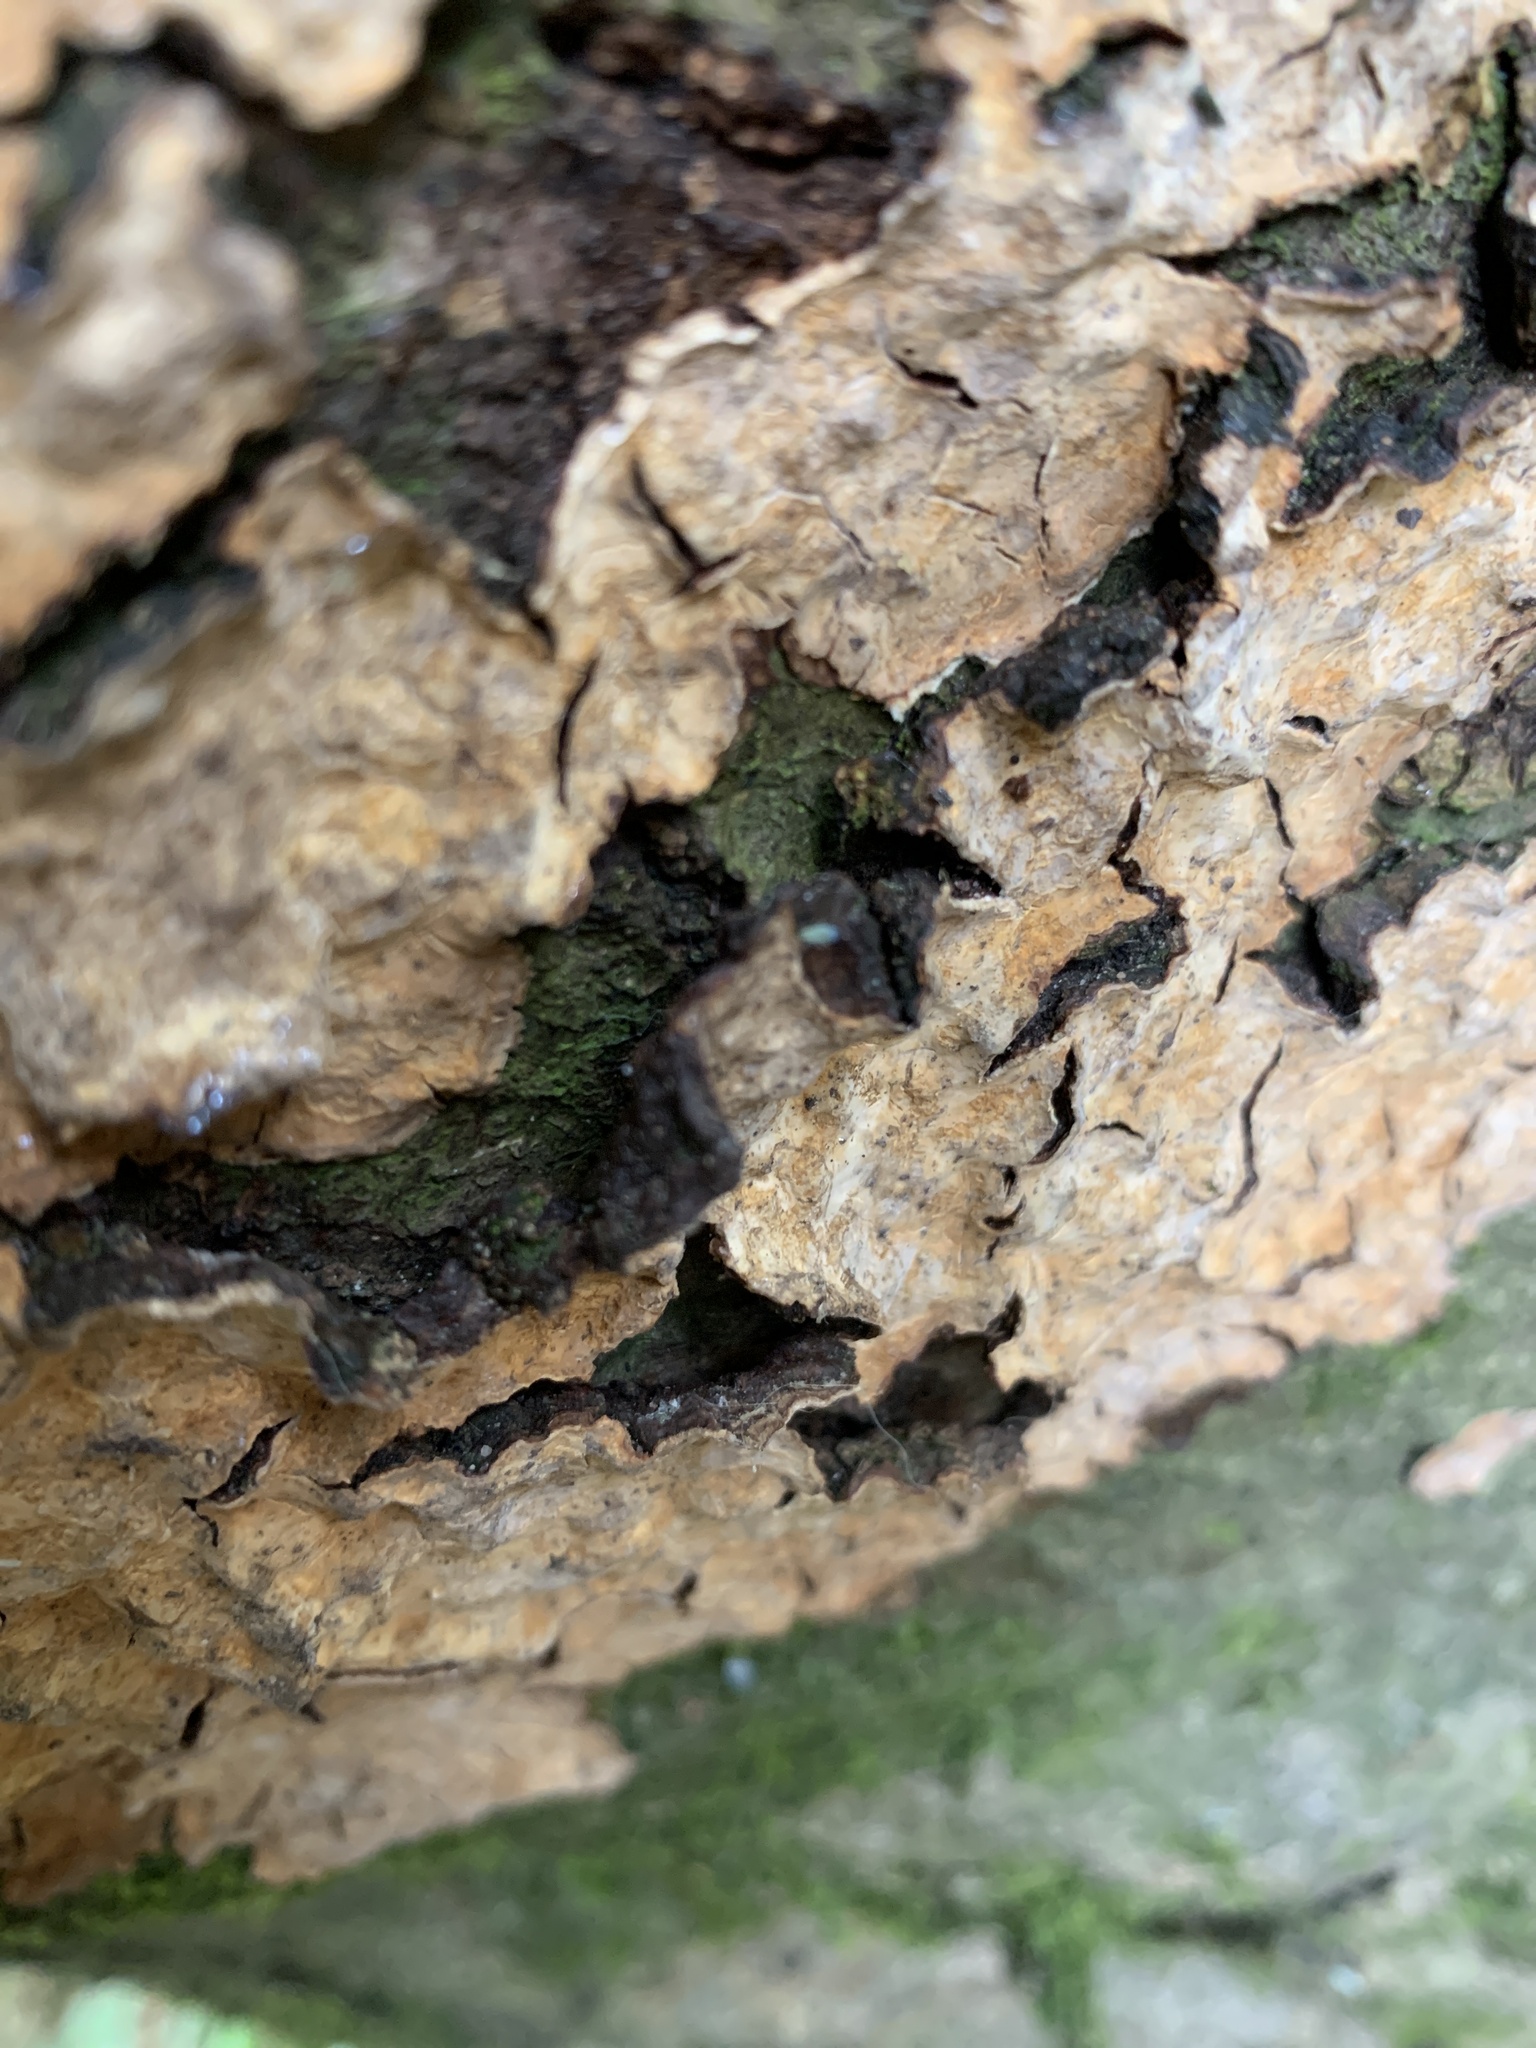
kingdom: Fungi
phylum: Basidiomycota
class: Agaricomycetes
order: Russulales
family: Stereaceae
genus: Stereum
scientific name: Stereum rugosum
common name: Bleeding broadleaf crust
